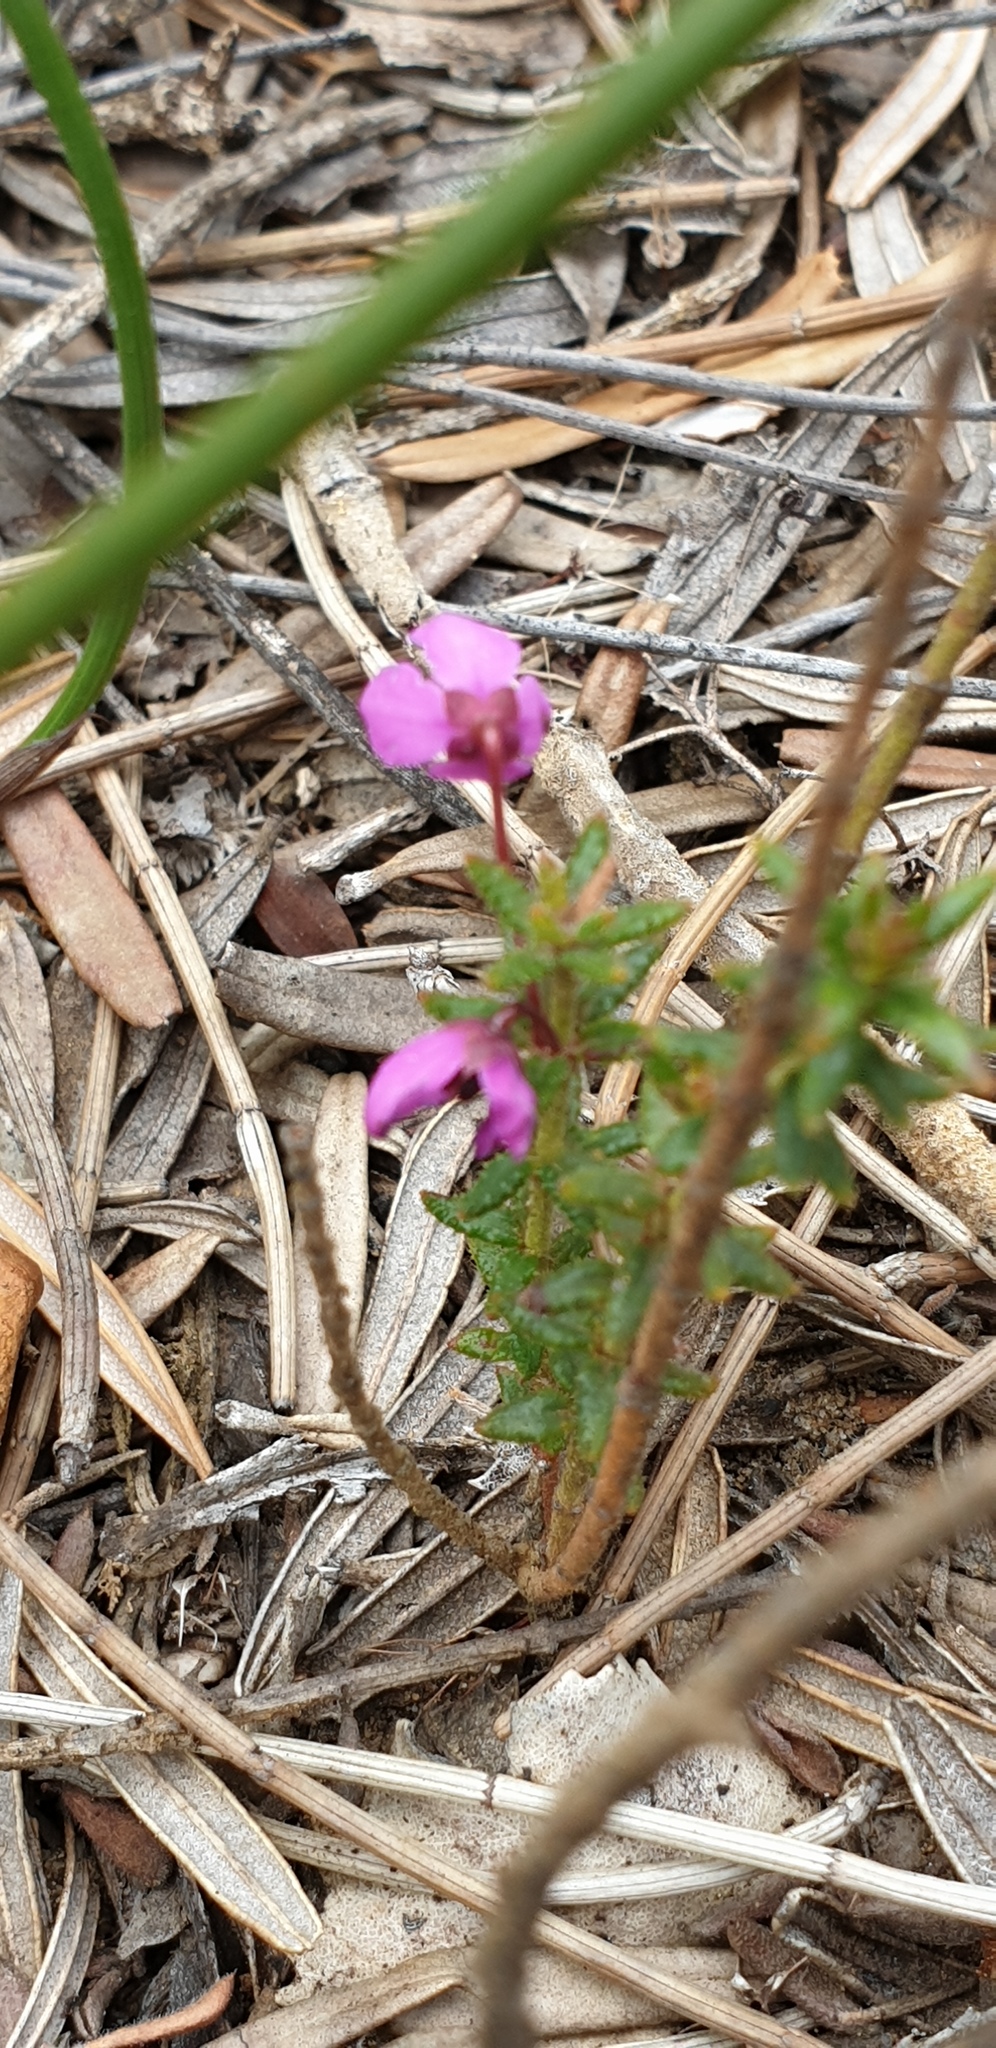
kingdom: Plantae
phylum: Tracheophyta
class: Magnoliopsida
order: Oxalidales
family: Elaeocarpaceae
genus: Tetratheca
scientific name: Tetratheca insularis
